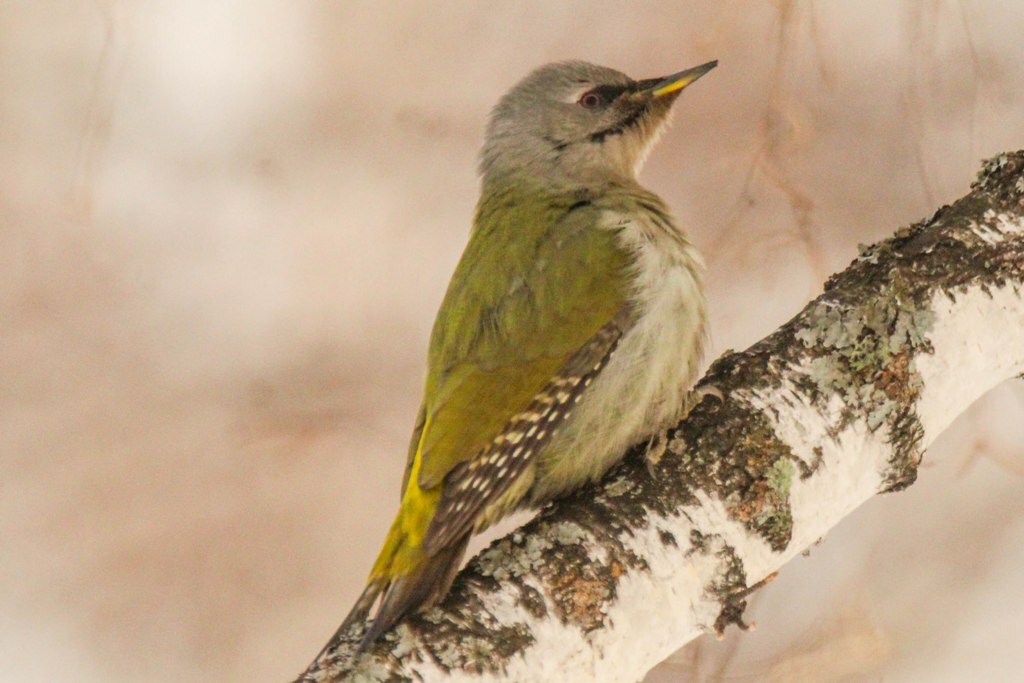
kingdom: Animalia
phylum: Chordata
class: Aves
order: Piciformes
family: Picidae
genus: Picus
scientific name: Picus canus
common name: Grey-headed woodpecker
